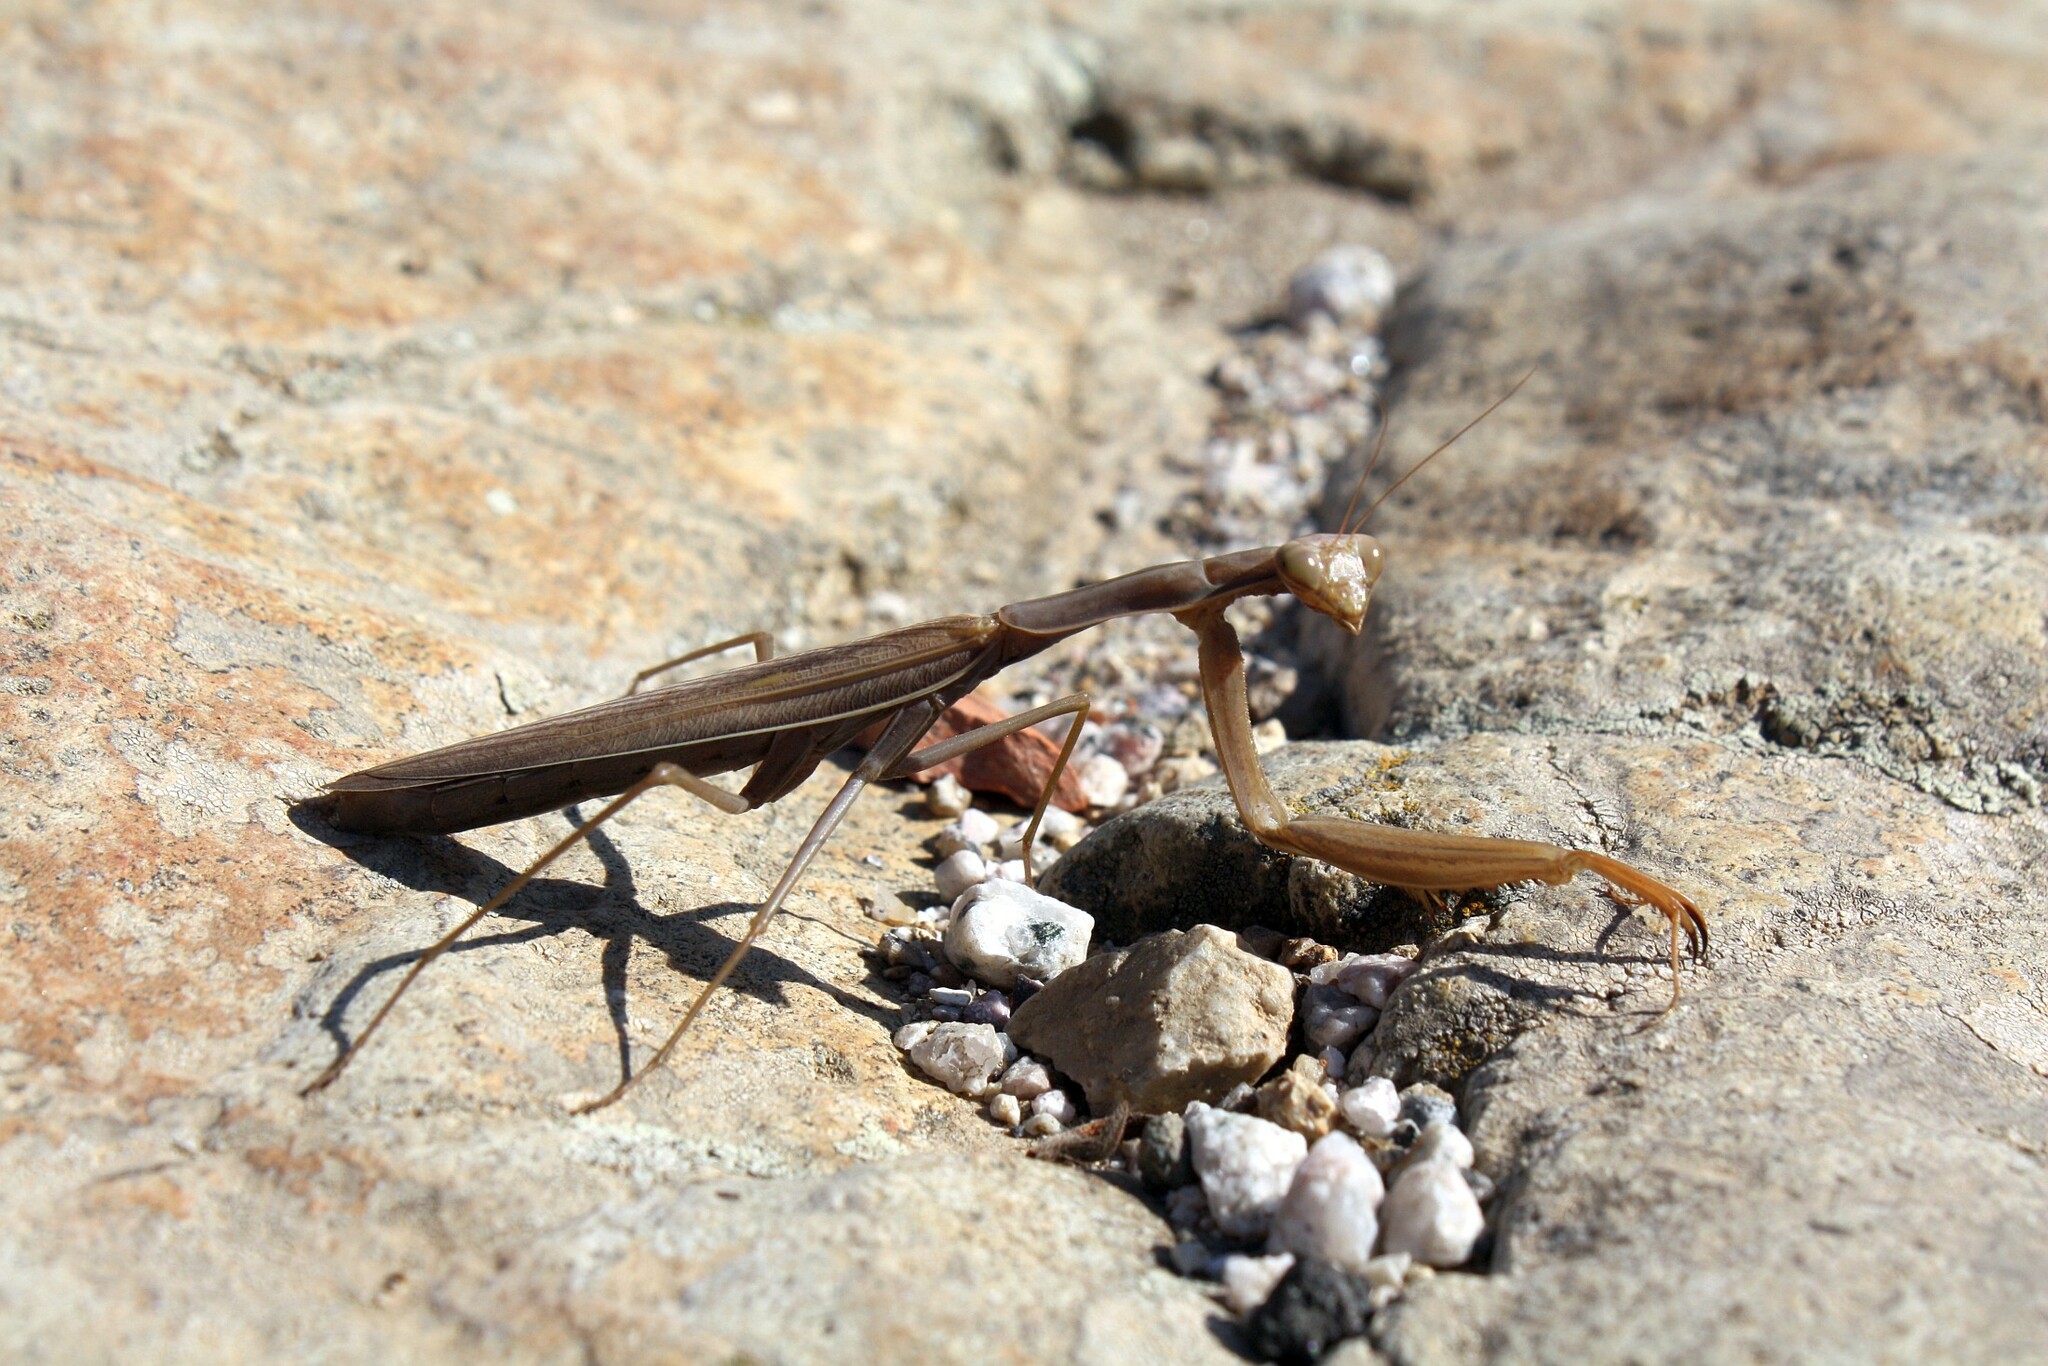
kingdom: Animalia
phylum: Arthropoda
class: Insecta
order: Mantodea
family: Mantidae
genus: Mantis
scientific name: Mantis religiosa
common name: Praying mantis
